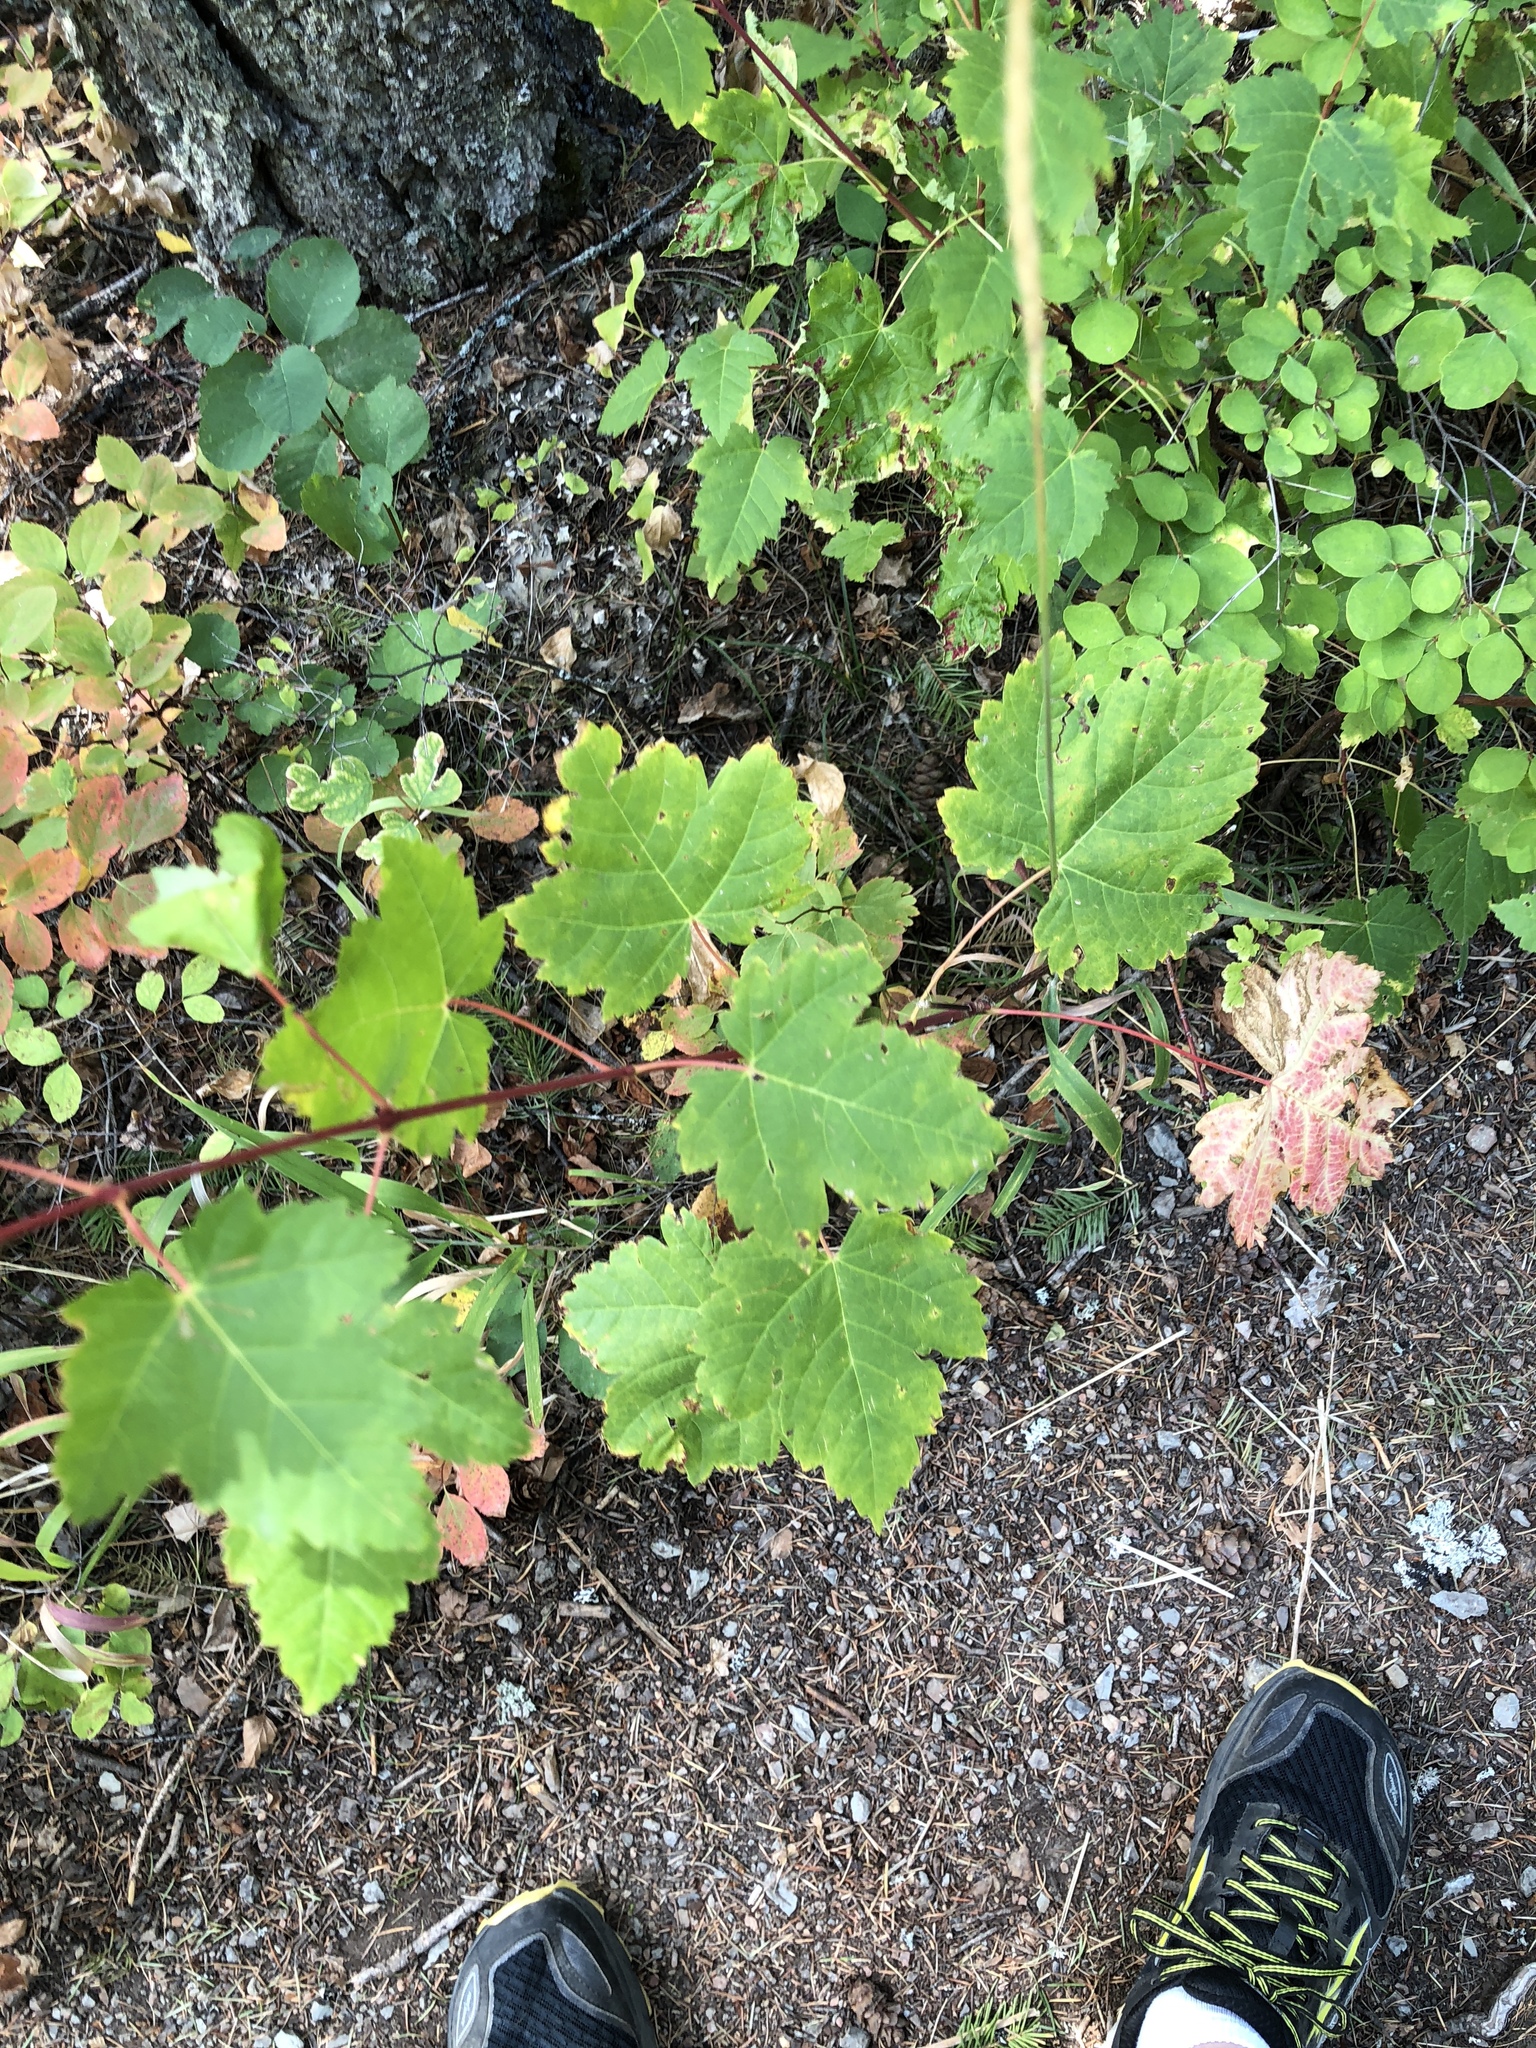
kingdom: Plantae
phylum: Tracheophyta
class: Magnoliopsida
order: Sapindales
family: Sapindaceae
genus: Acer
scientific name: Acer glabrum
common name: Rocky mountain maple
